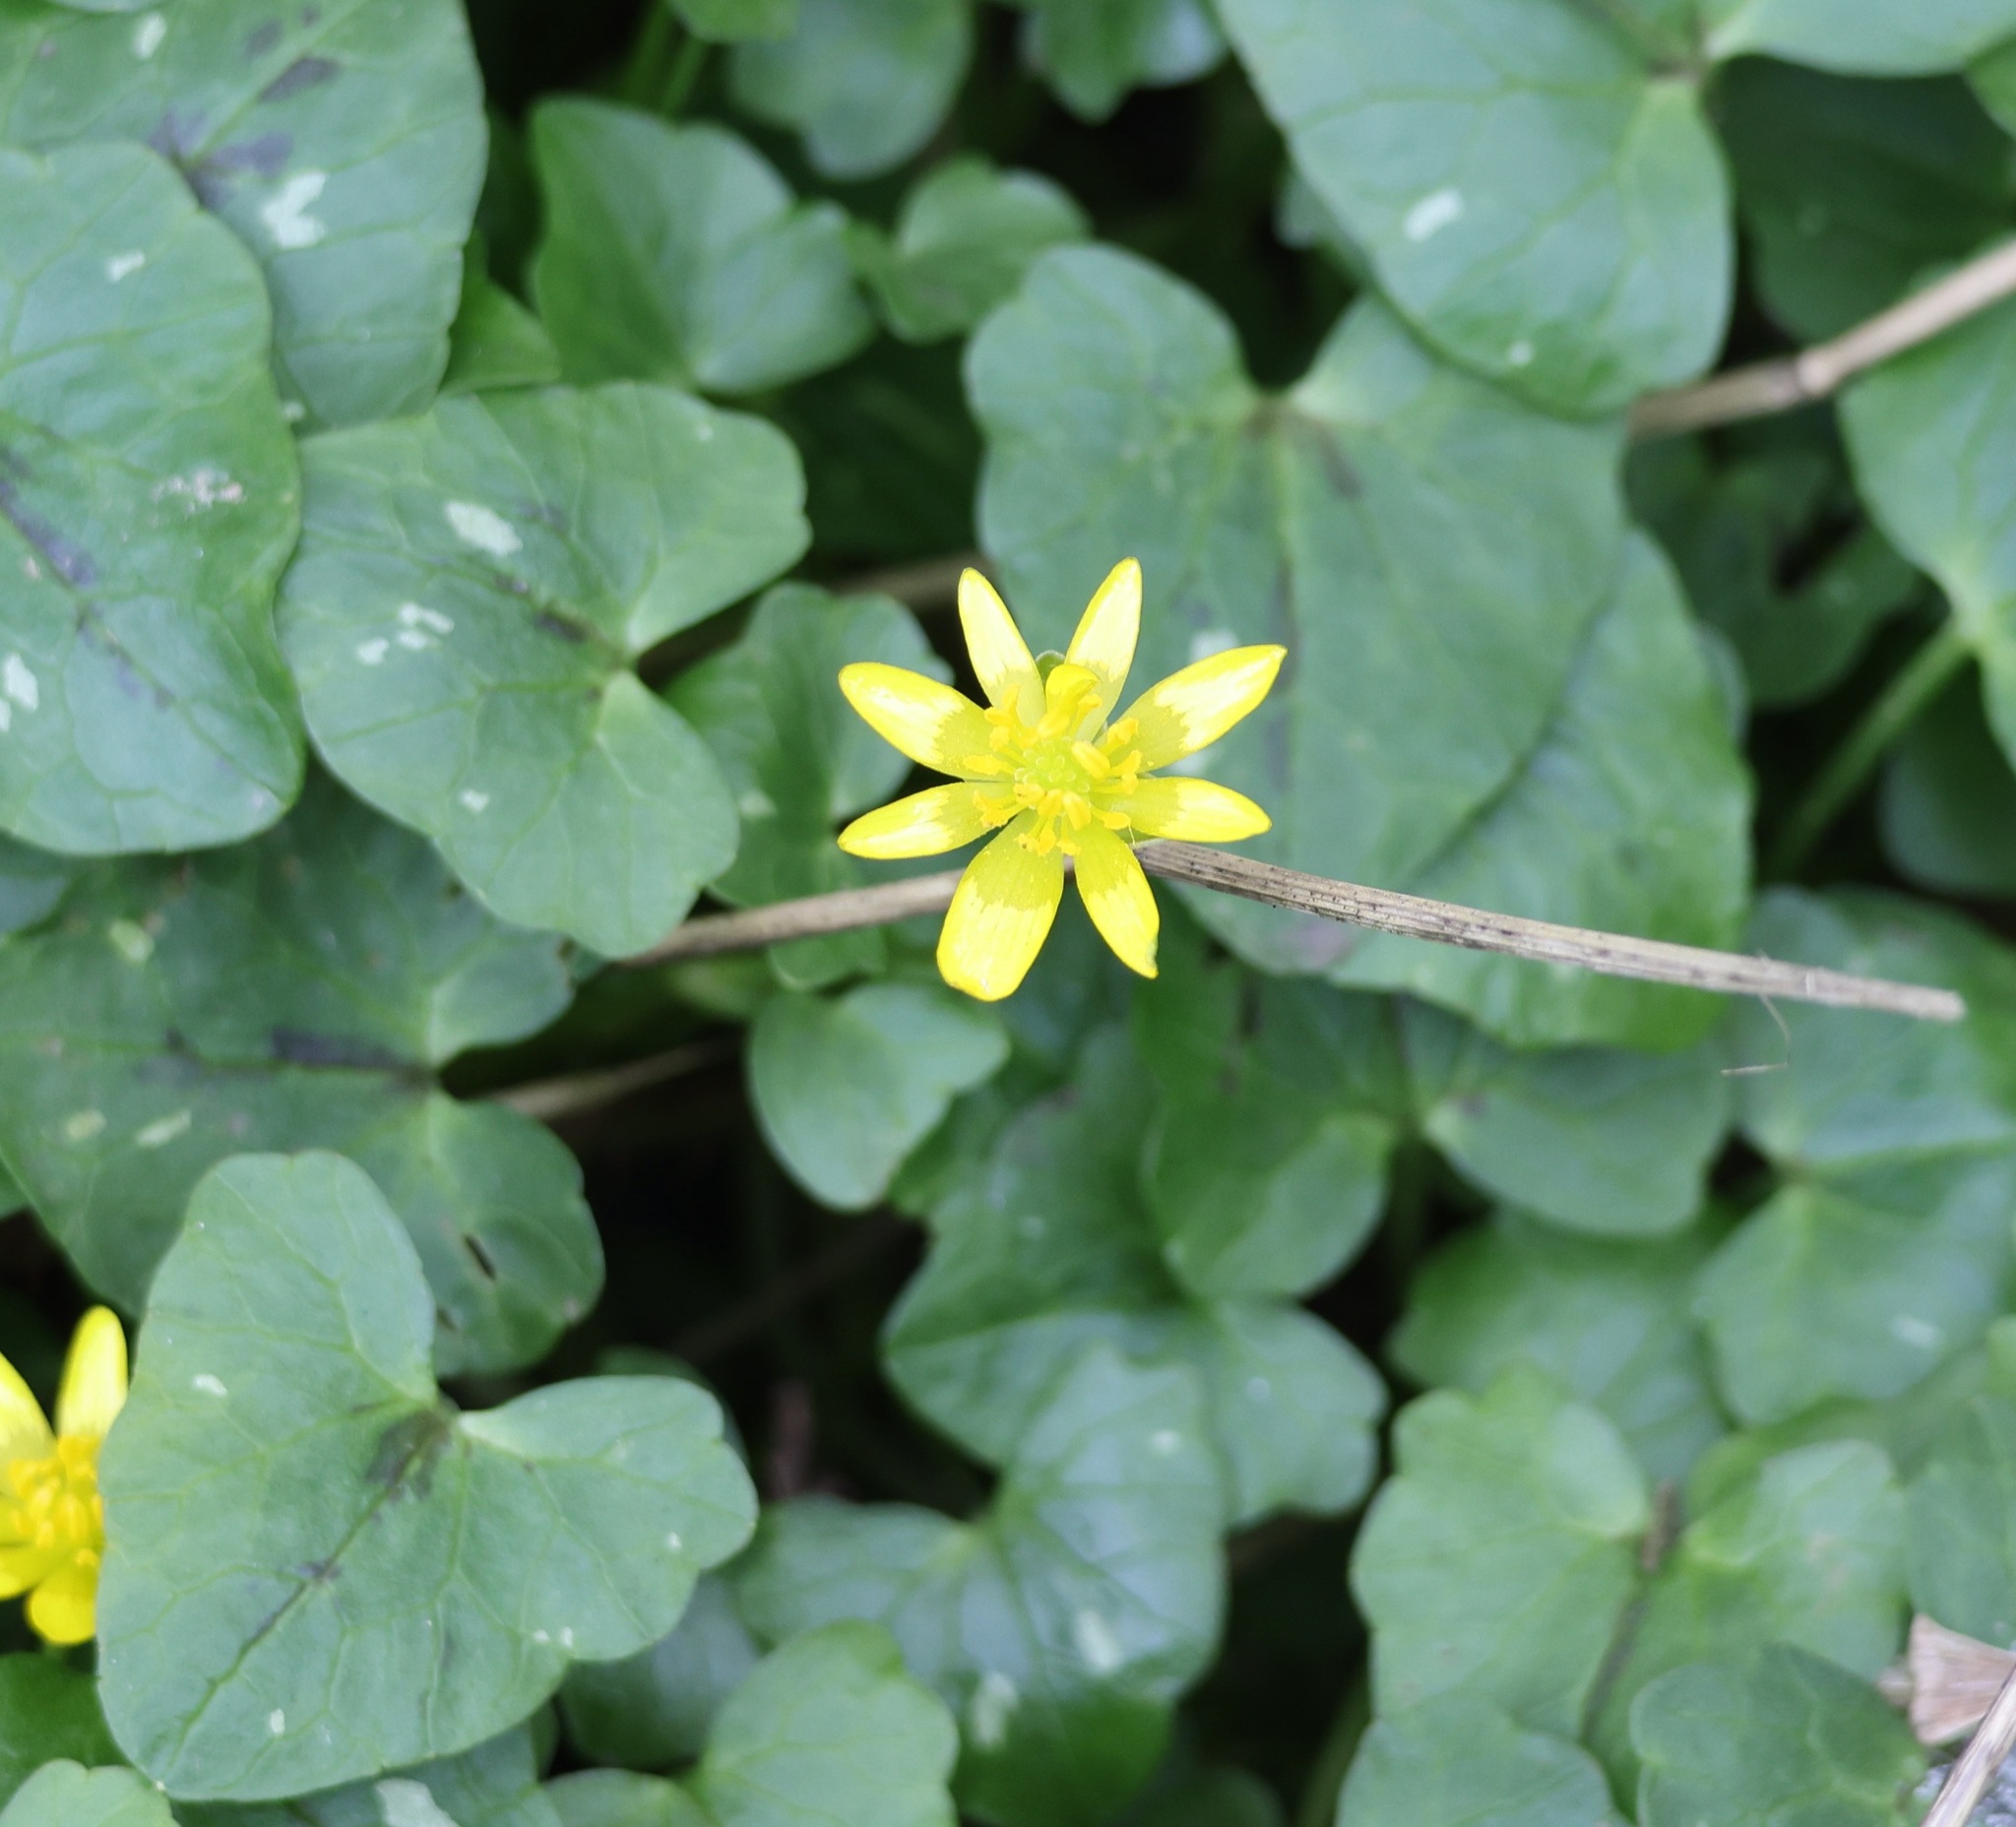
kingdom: Plantae
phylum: Tracheophyta
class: Magnoliopsida
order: Ranunculales
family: Ranunculaceae
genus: Ficaria
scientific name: Ficaria verna
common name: Lesser celandine
